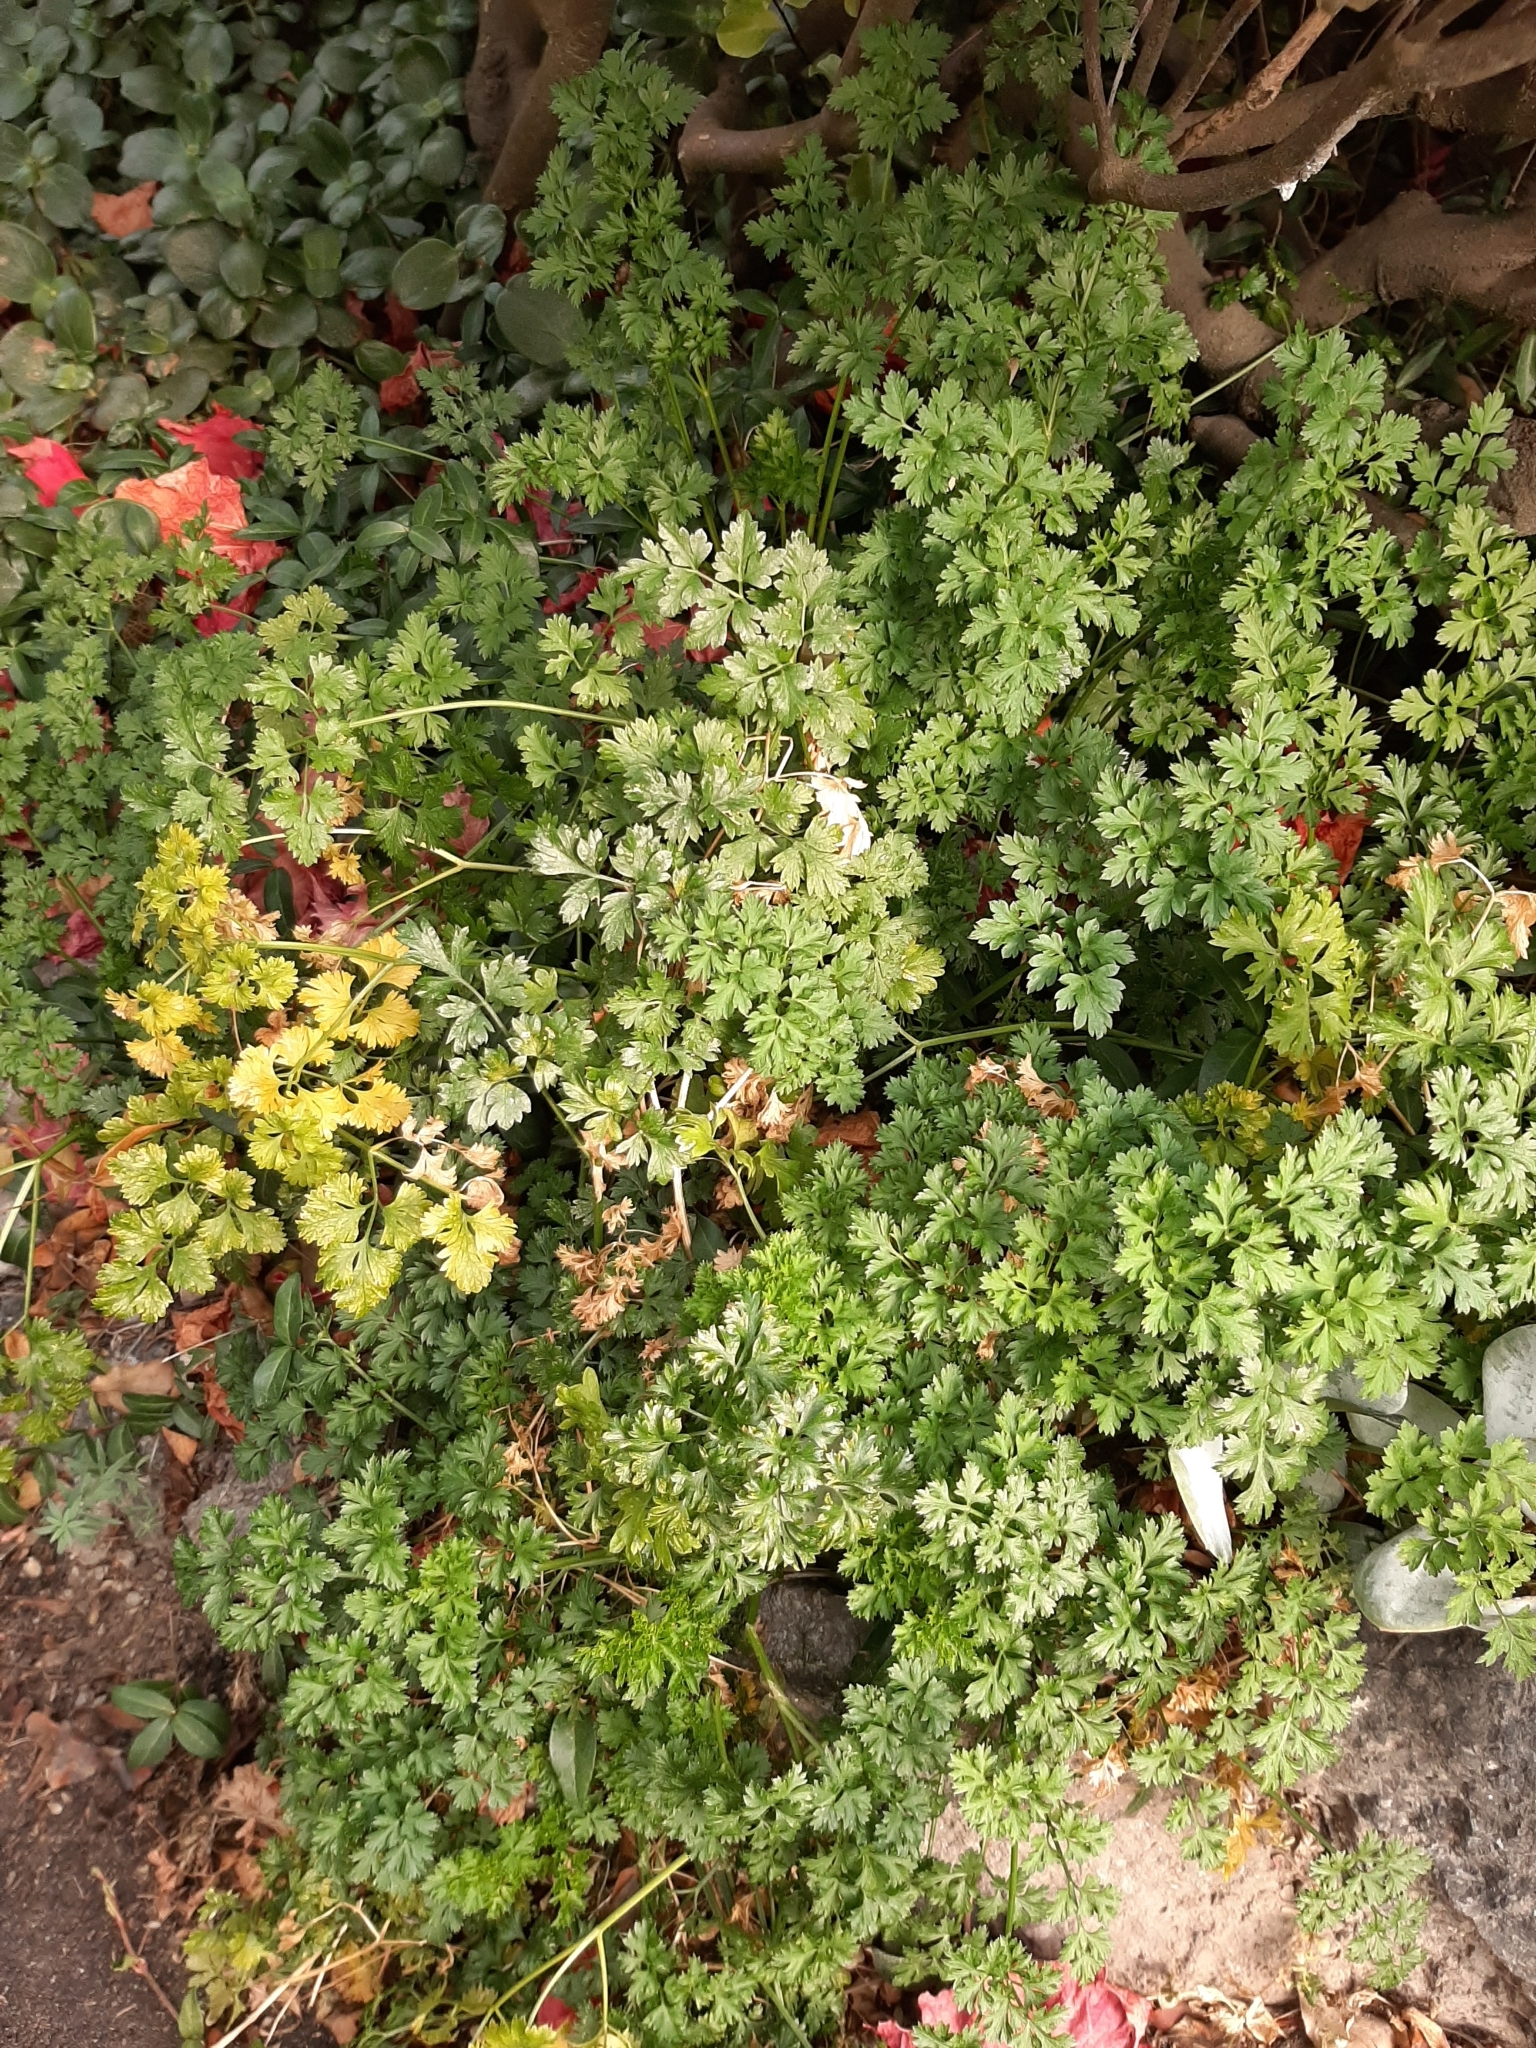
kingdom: Plantae
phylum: Tracheophyta
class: Magnoliopsida
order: Apiales
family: Apiaceae
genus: Petroselinum
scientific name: Petroselinum crispum
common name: Parsley
